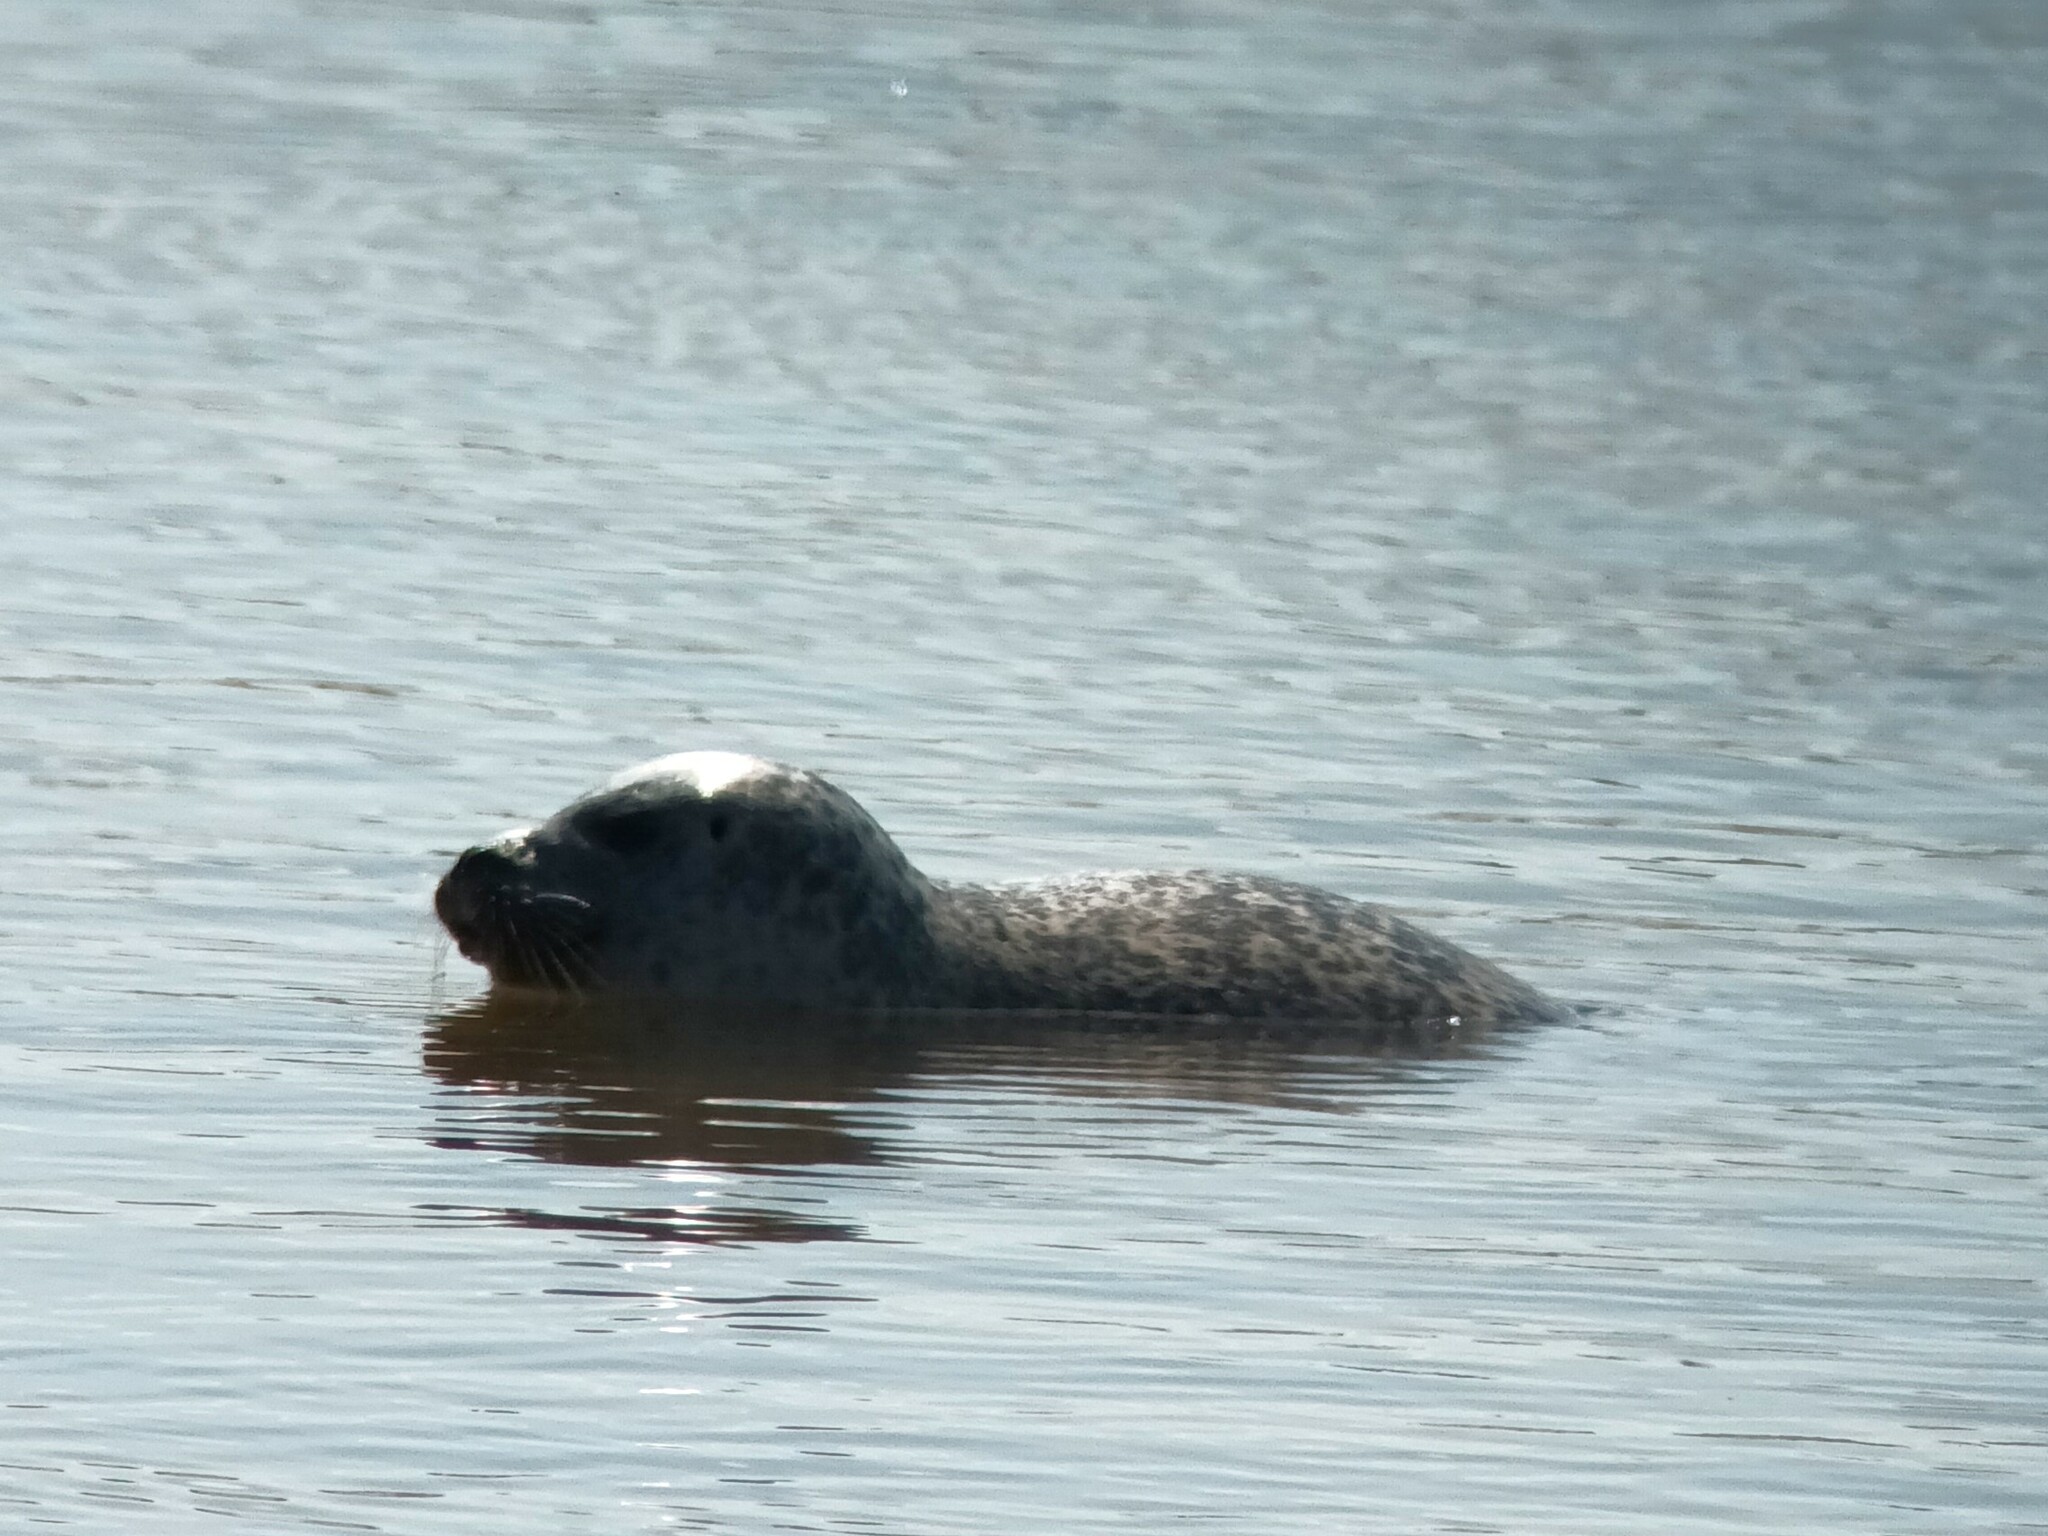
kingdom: Animalia
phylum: Chordata
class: Mammalia
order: Carnivora
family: Phocidae
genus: Phoca
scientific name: Phoca vitulina
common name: Harbor seal
